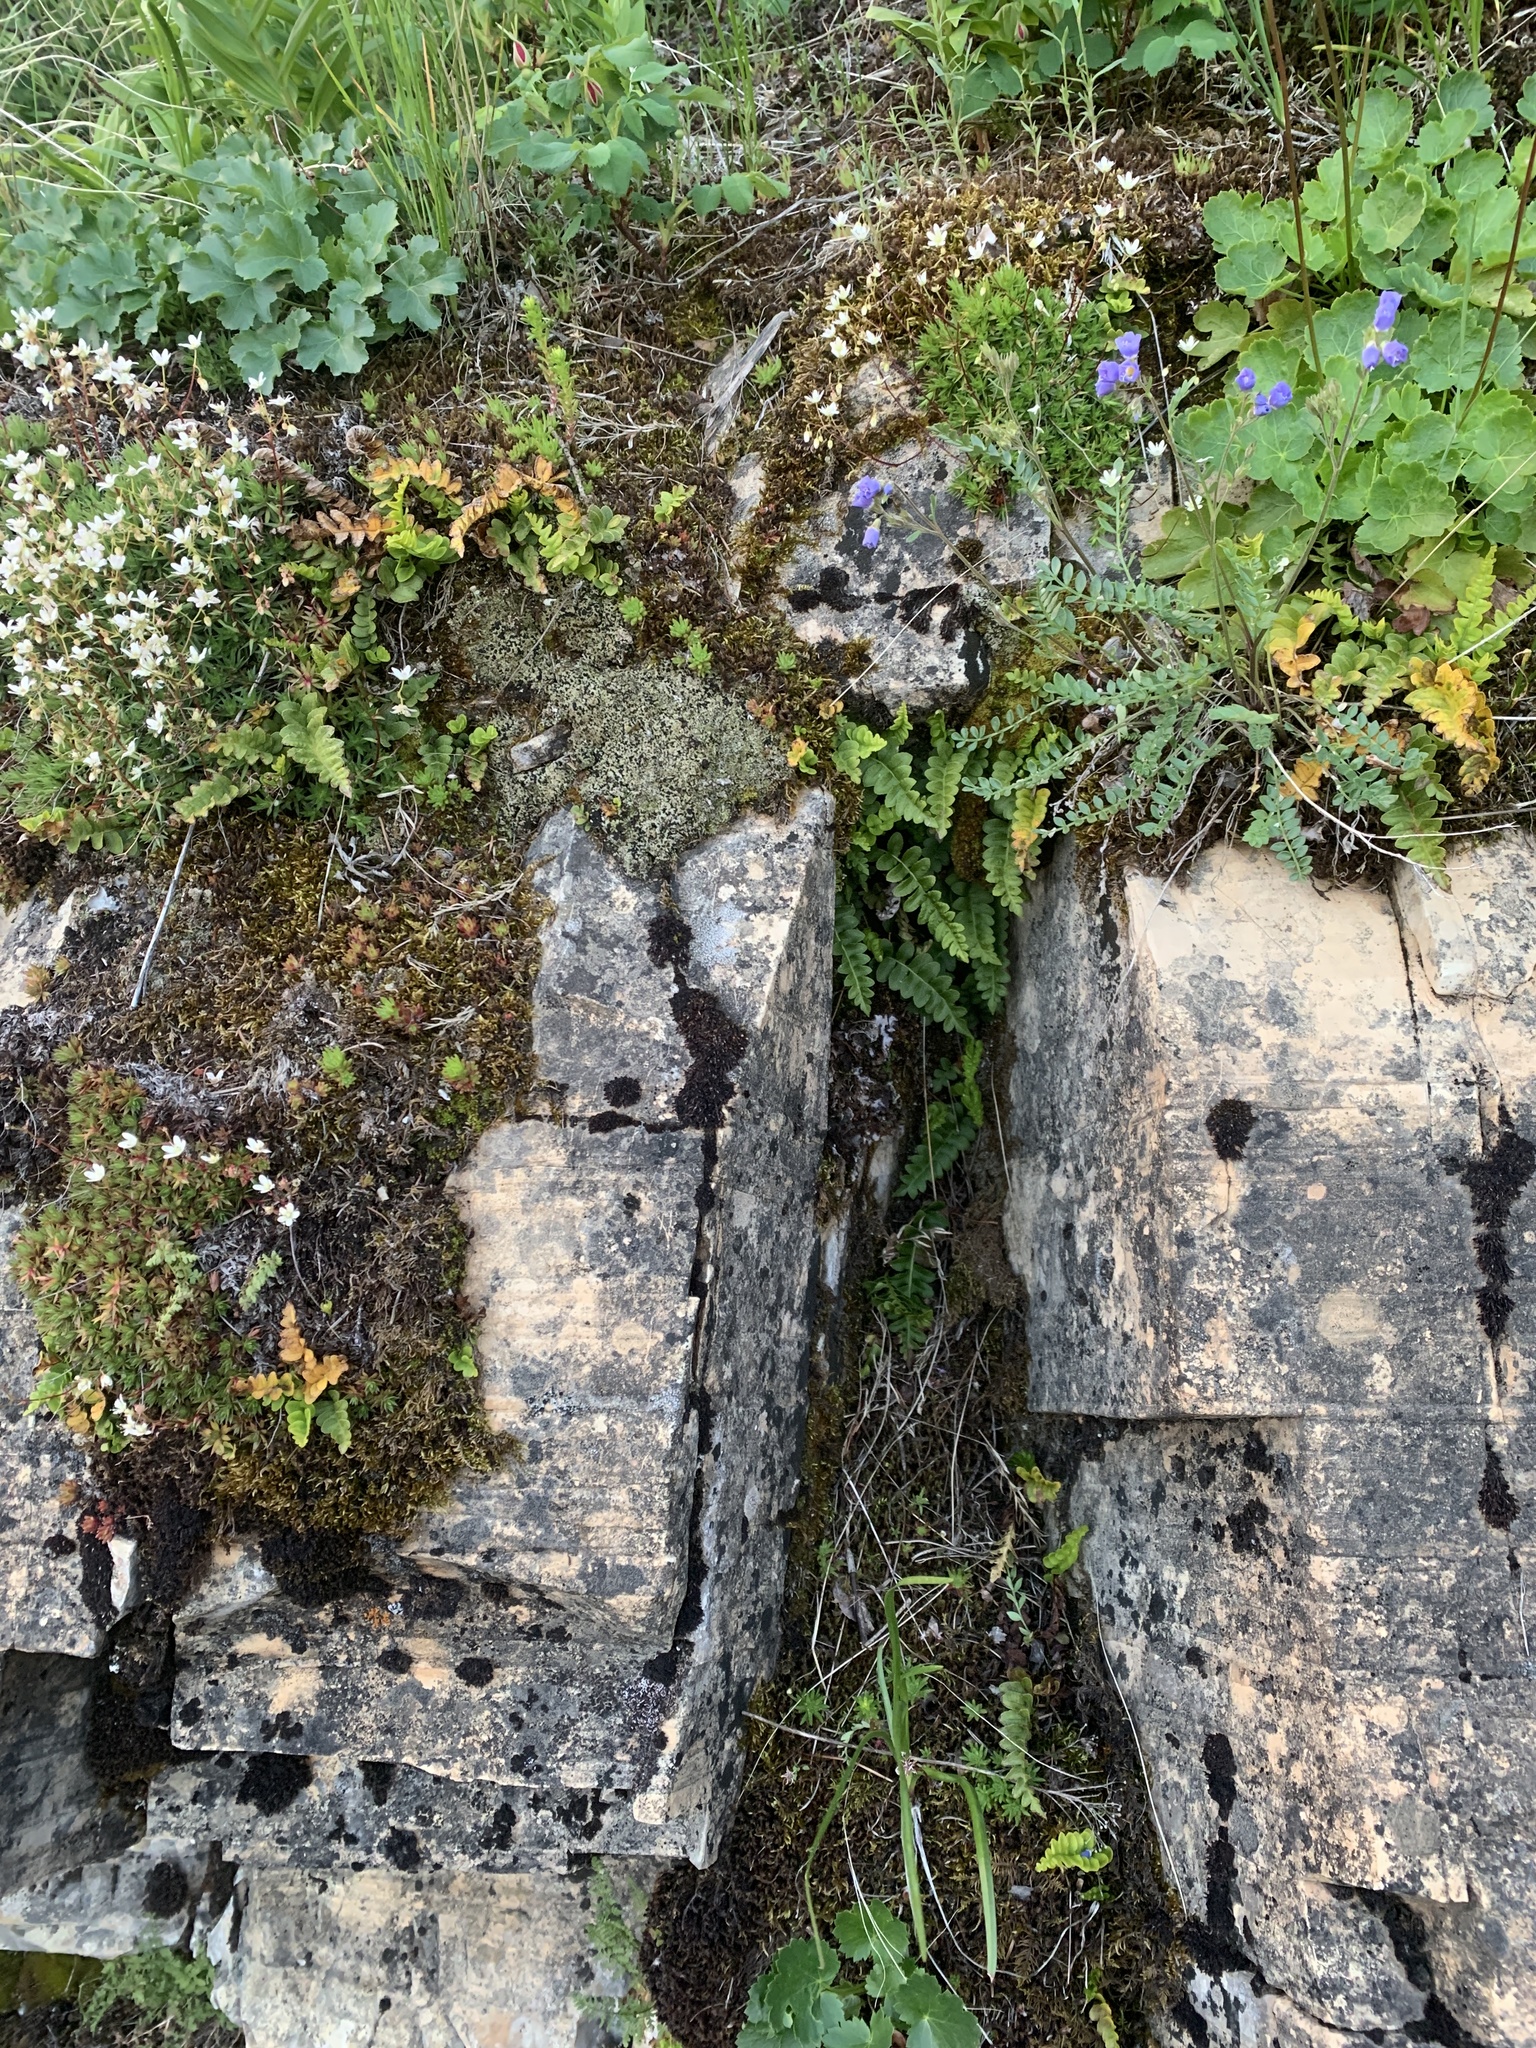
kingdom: Plantae
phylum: Tracheophyta
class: Polypodiopsida
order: Polypodiales
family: Polypodiaceae
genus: Polypodium
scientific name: Polypodium hesperium
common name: Western polypody
